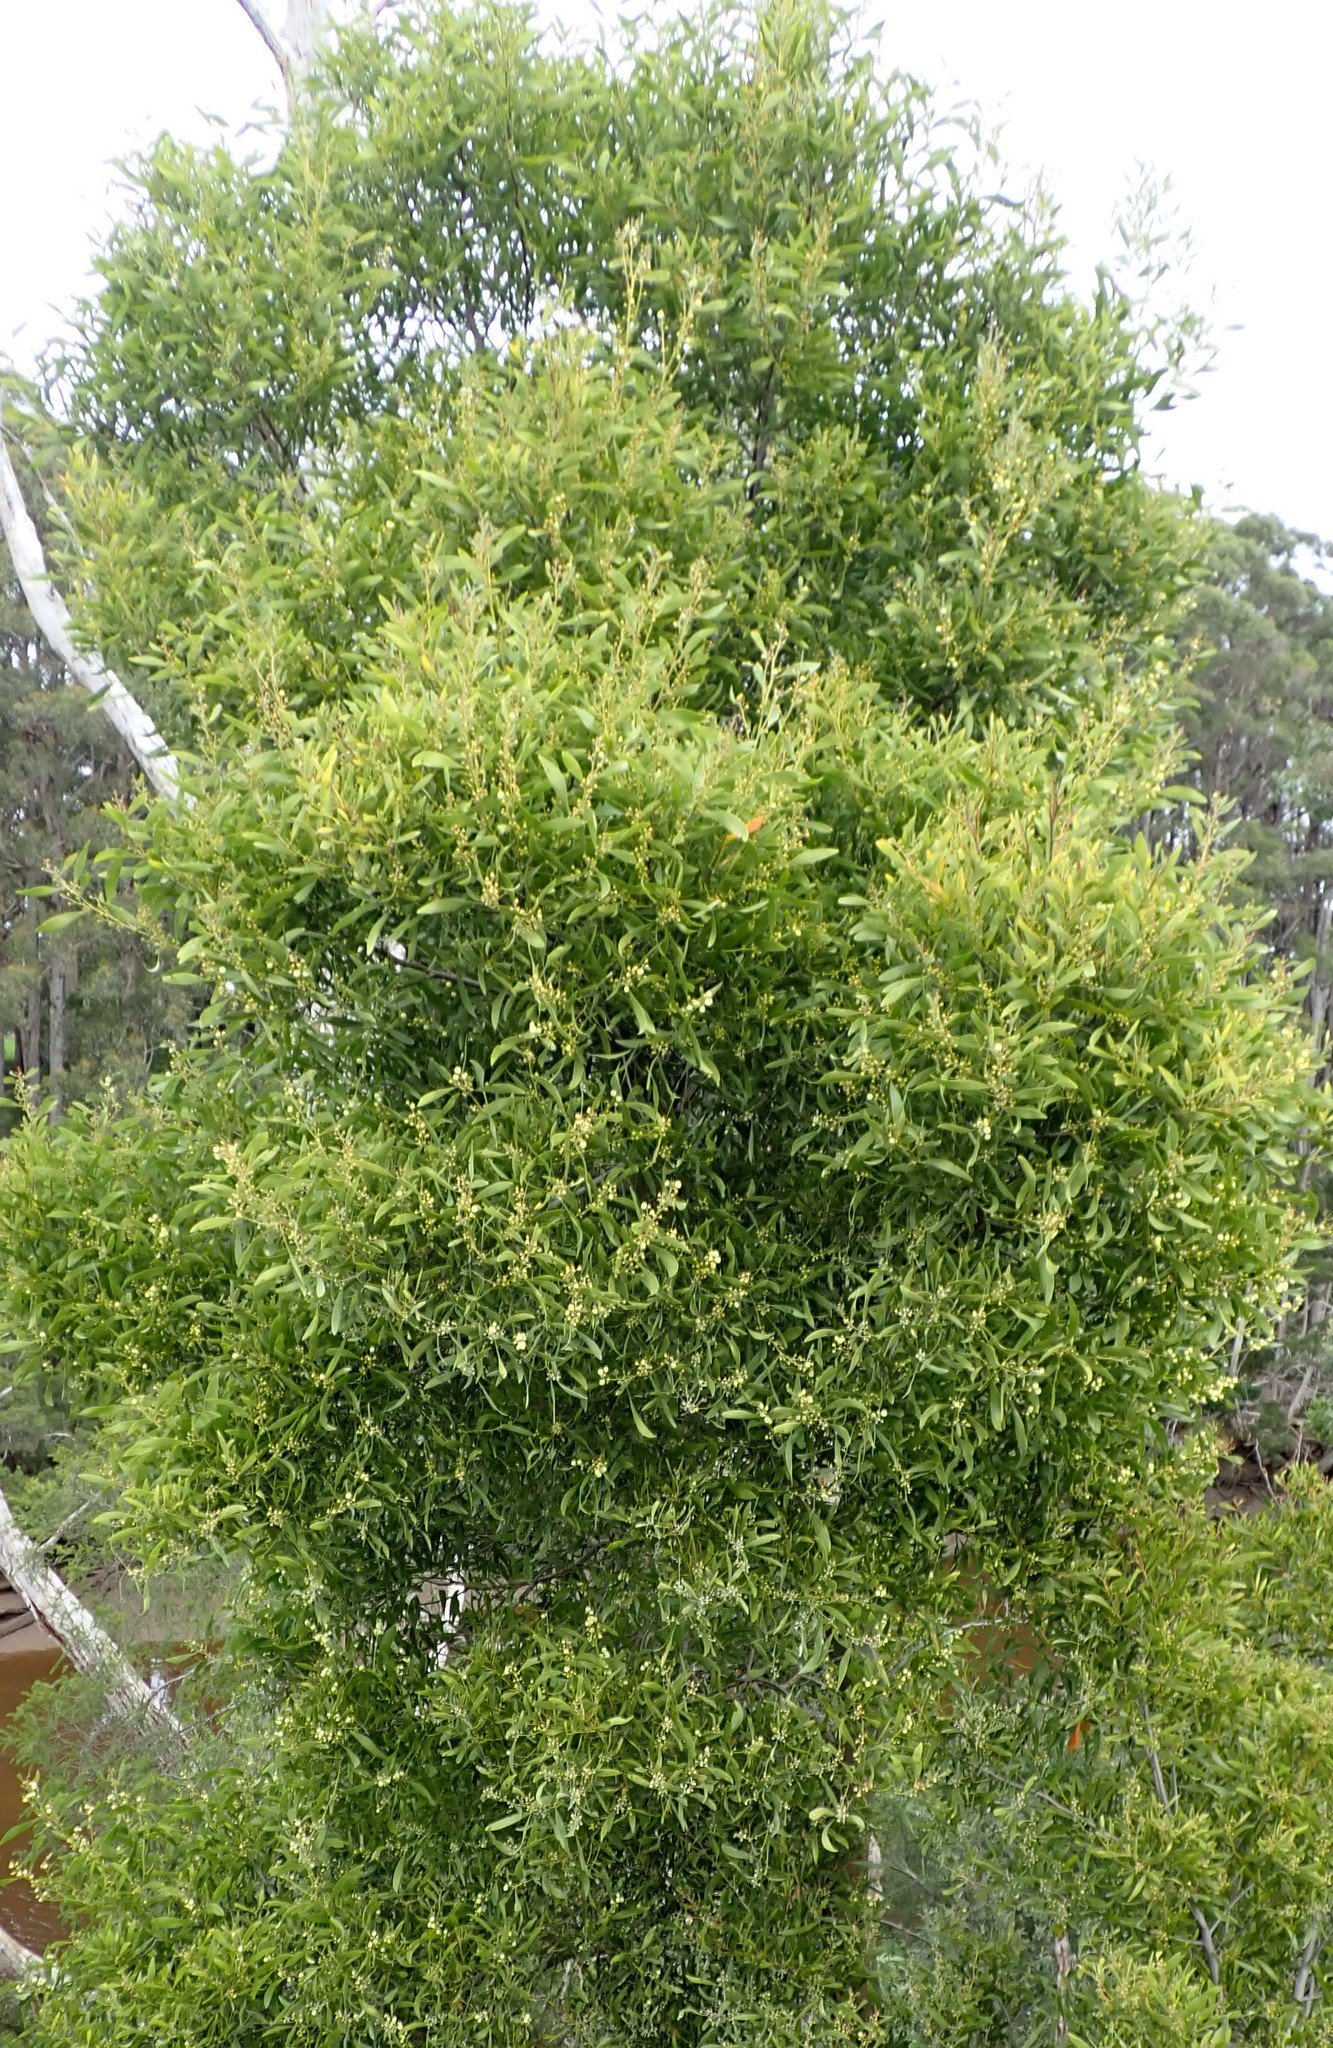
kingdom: Plantae
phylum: Tracheophyta
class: Magnoliopsida
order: Fabales
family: Fabaceae
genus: Acacia
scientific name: Acacia melanoxylon
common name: Blackwood
